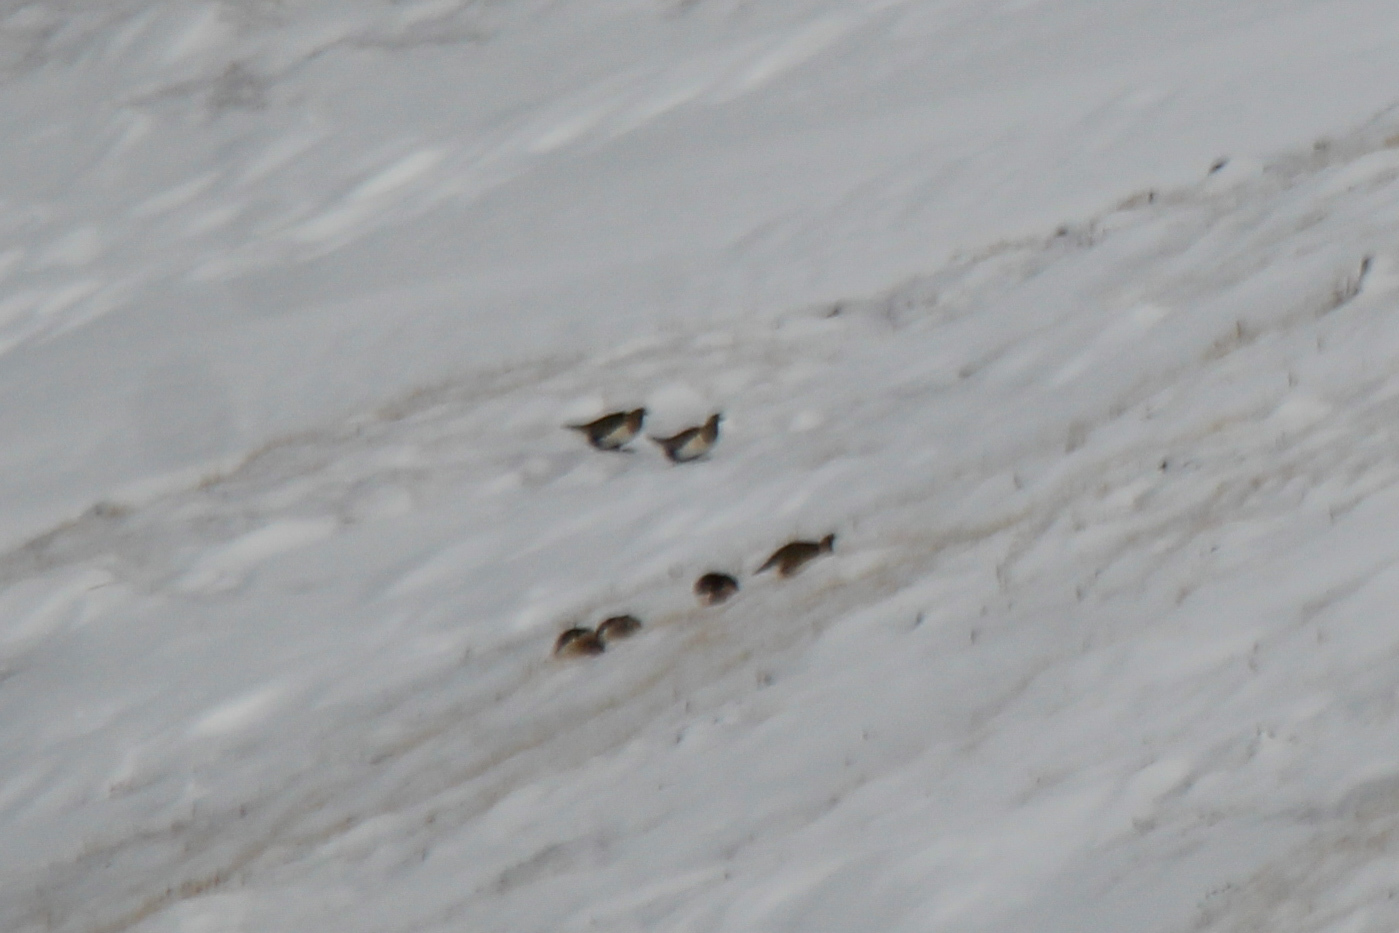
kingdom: Animalia
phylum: Chordata
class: Aves
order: Galliformes
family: Phasianidae
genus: Tetraogallus
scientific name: Tetraogallus altaicus
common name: Altai snowcock
